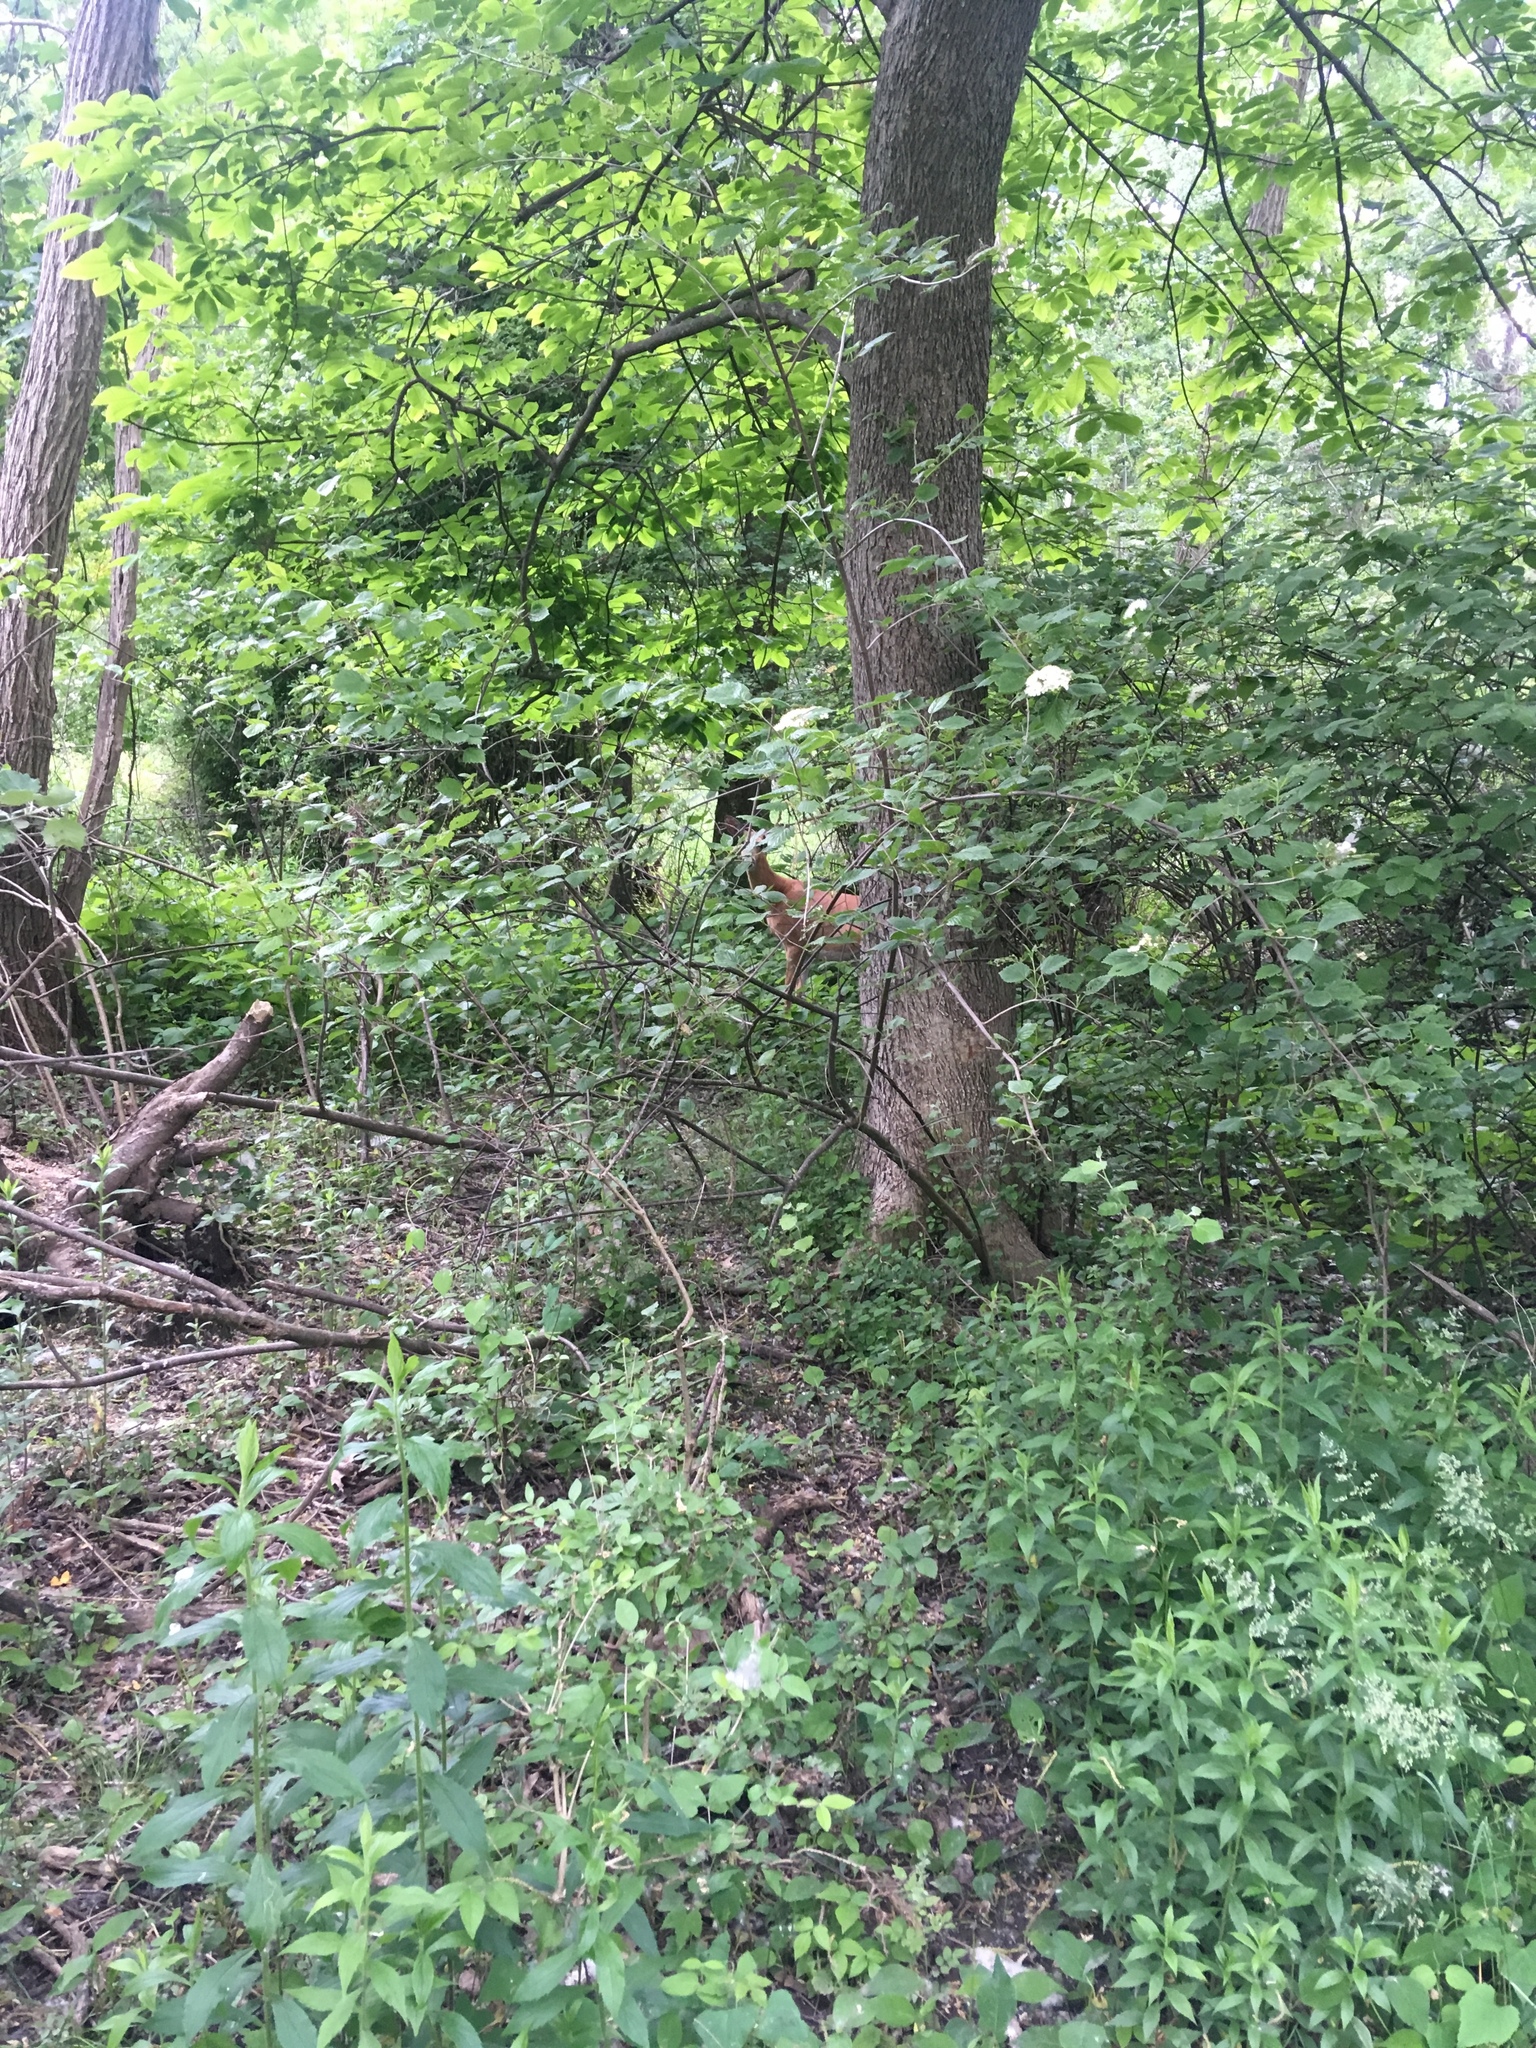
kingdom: Animalia
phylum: Chordata
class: Mammalia
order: Artiodactyla
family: Cervidae
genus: Odocoileus
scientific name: Odocoileus virginianus
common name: White-tailed deer
